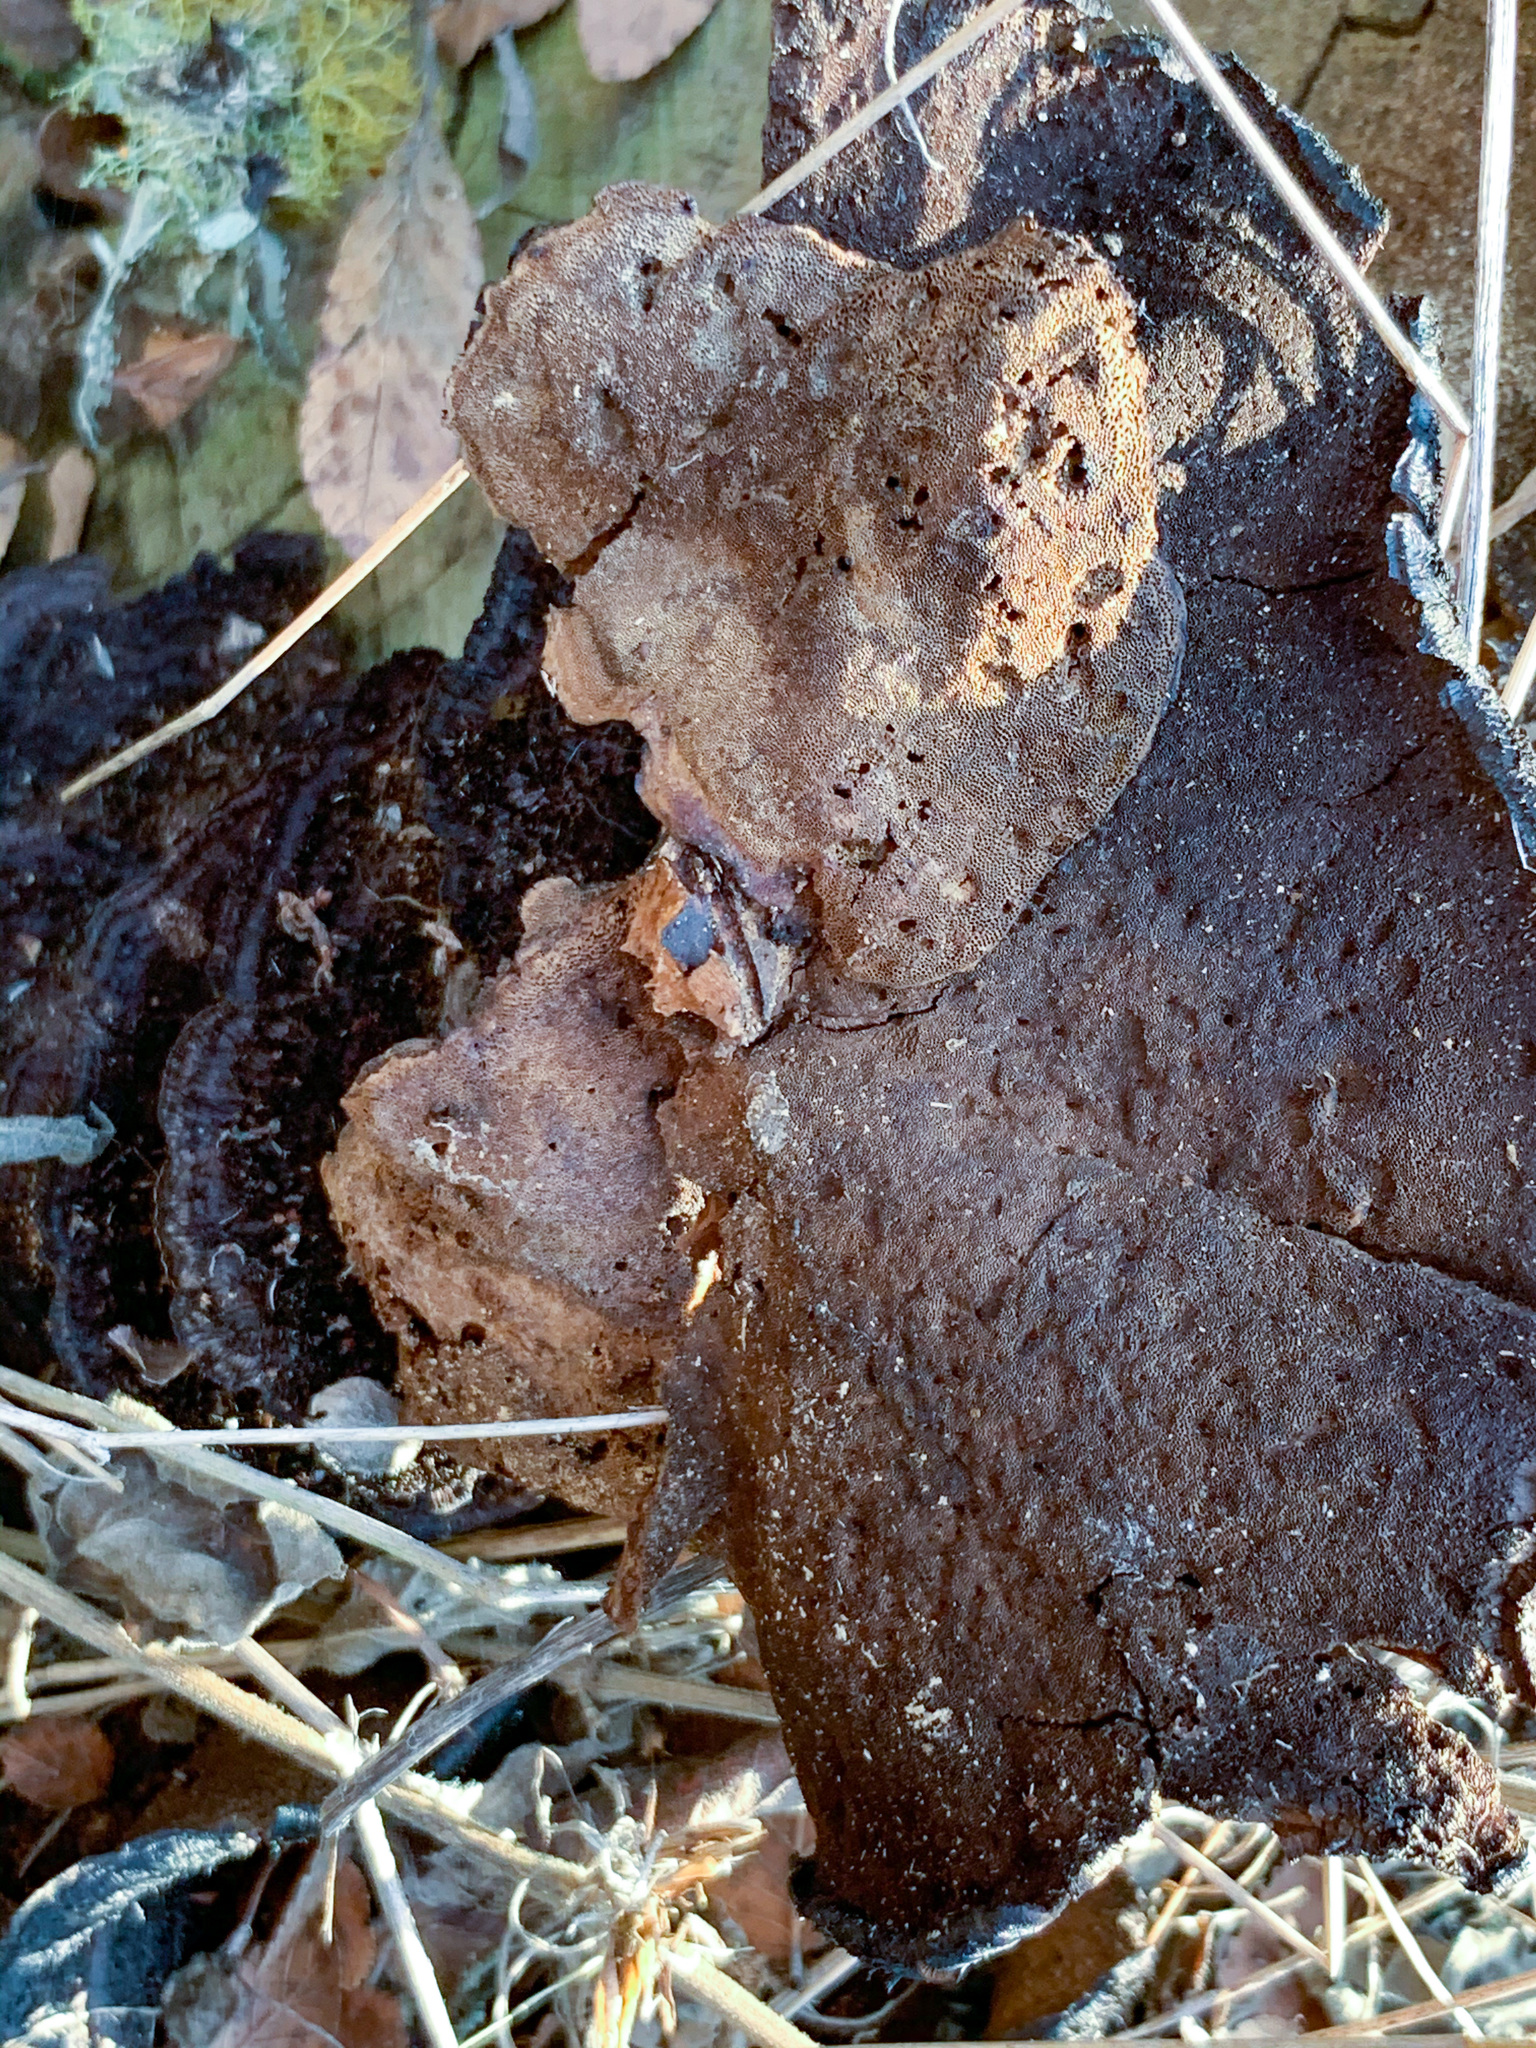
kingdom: Fungi
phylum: Basidiomycota
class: Agaricomycetes
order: Polyporales
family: Cerrenaceae
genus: Cerrena
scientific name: Cerrena hydnoides
